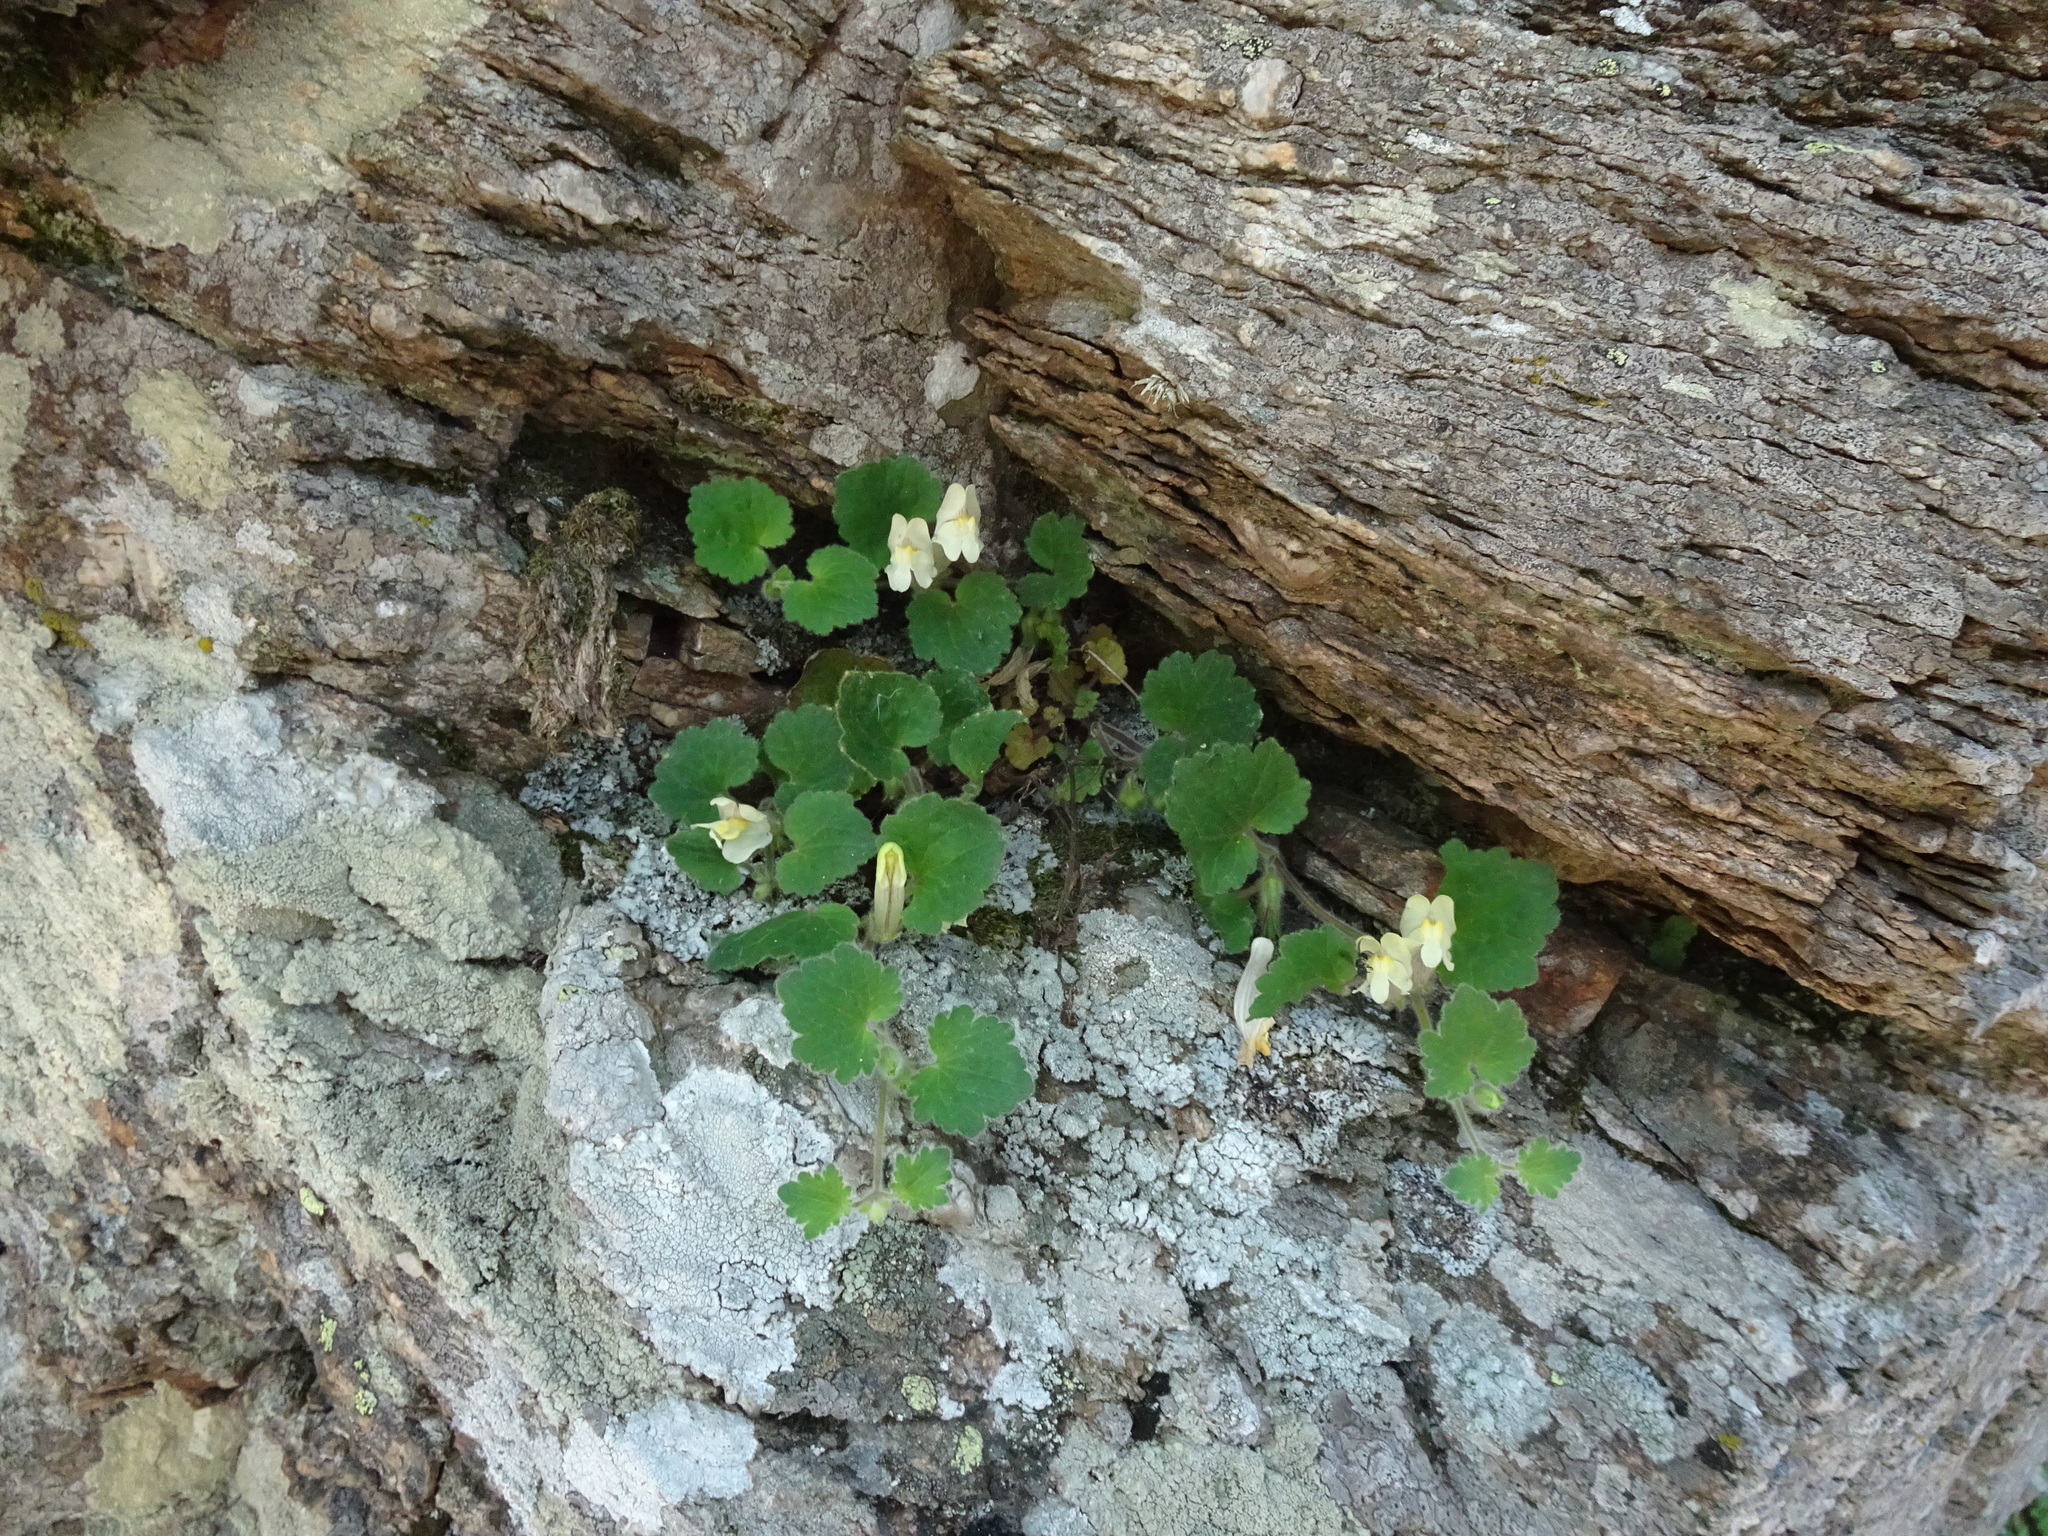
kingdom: Plantae
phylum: Tracheophyta
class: Magnoliopsida
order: Lamiales
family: Plantaginaceae
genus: Asarina
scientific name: Asarina procumbens
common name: Trailing snapdragon
